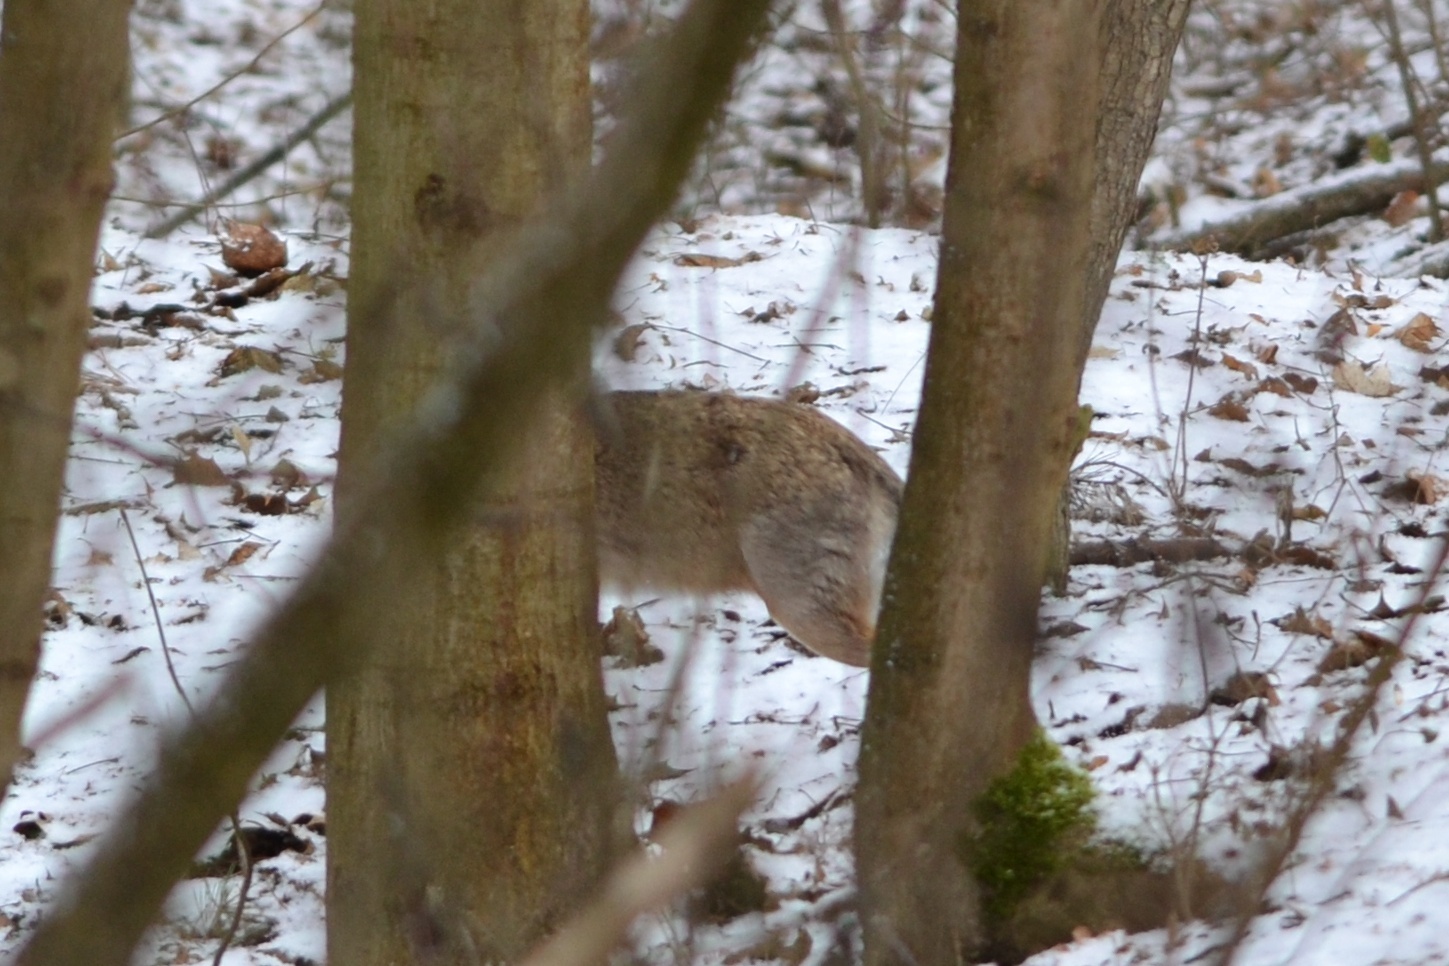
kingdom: Animalia
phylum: Chordata
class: Mammalia
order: Lagomorpha
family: Leporidae
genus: Lepus
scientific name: Lepus europaeus
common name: European hare
